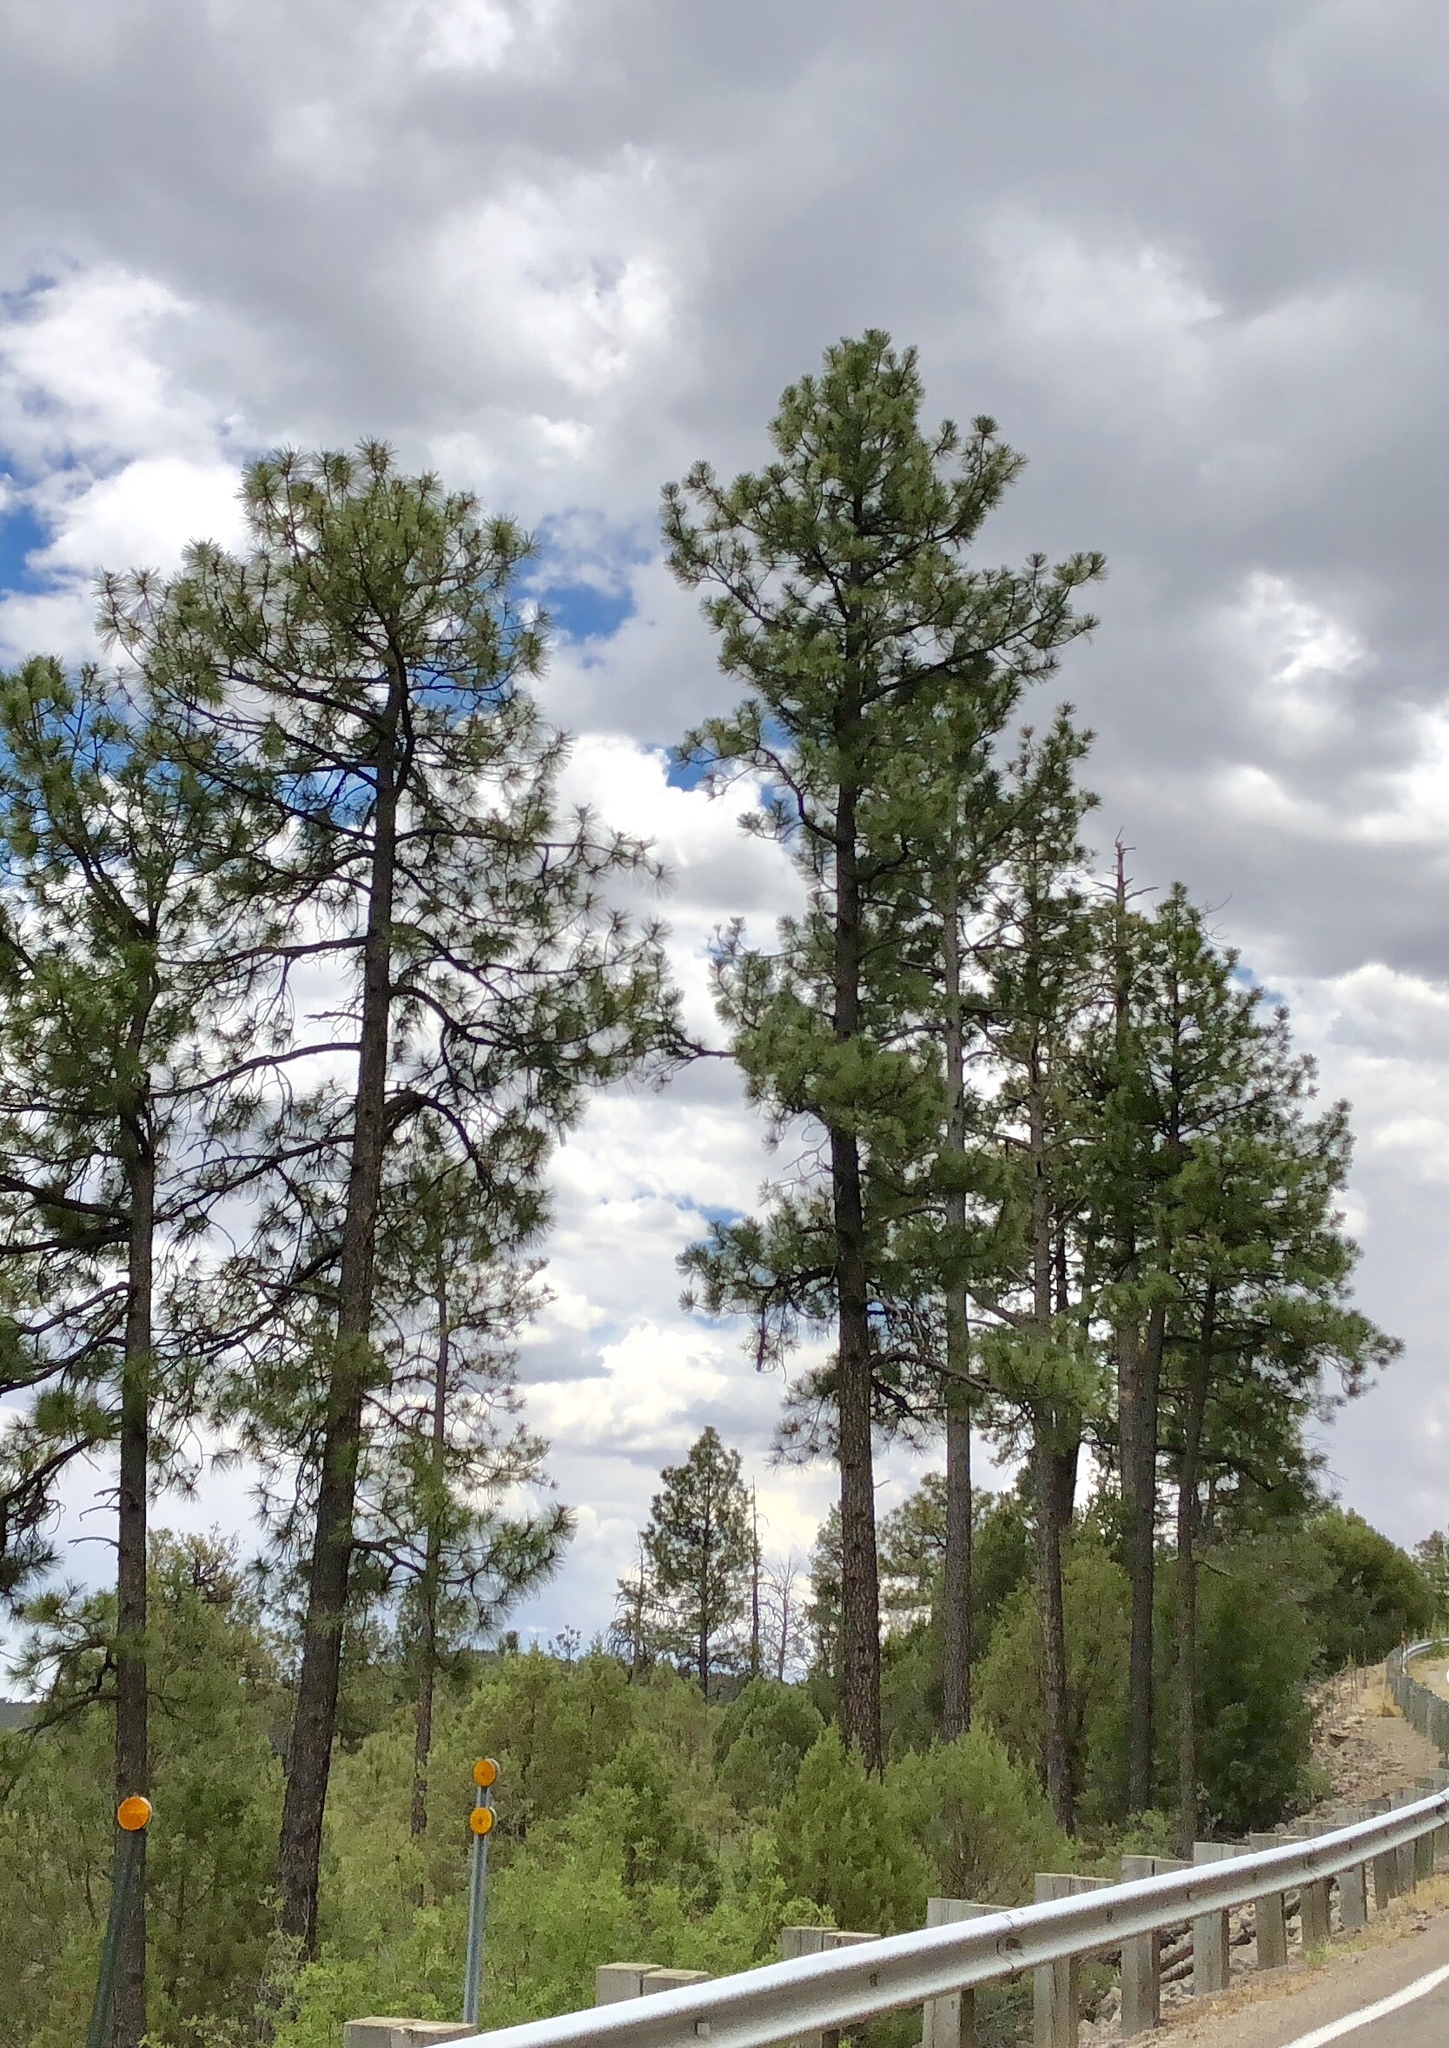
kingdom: Plantae
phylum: Tracheophyta
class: Pinopsida
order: Pinales
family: Pinaceae
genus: Pinus
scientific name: Pinus ponderosa
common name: Western yellow-pine
